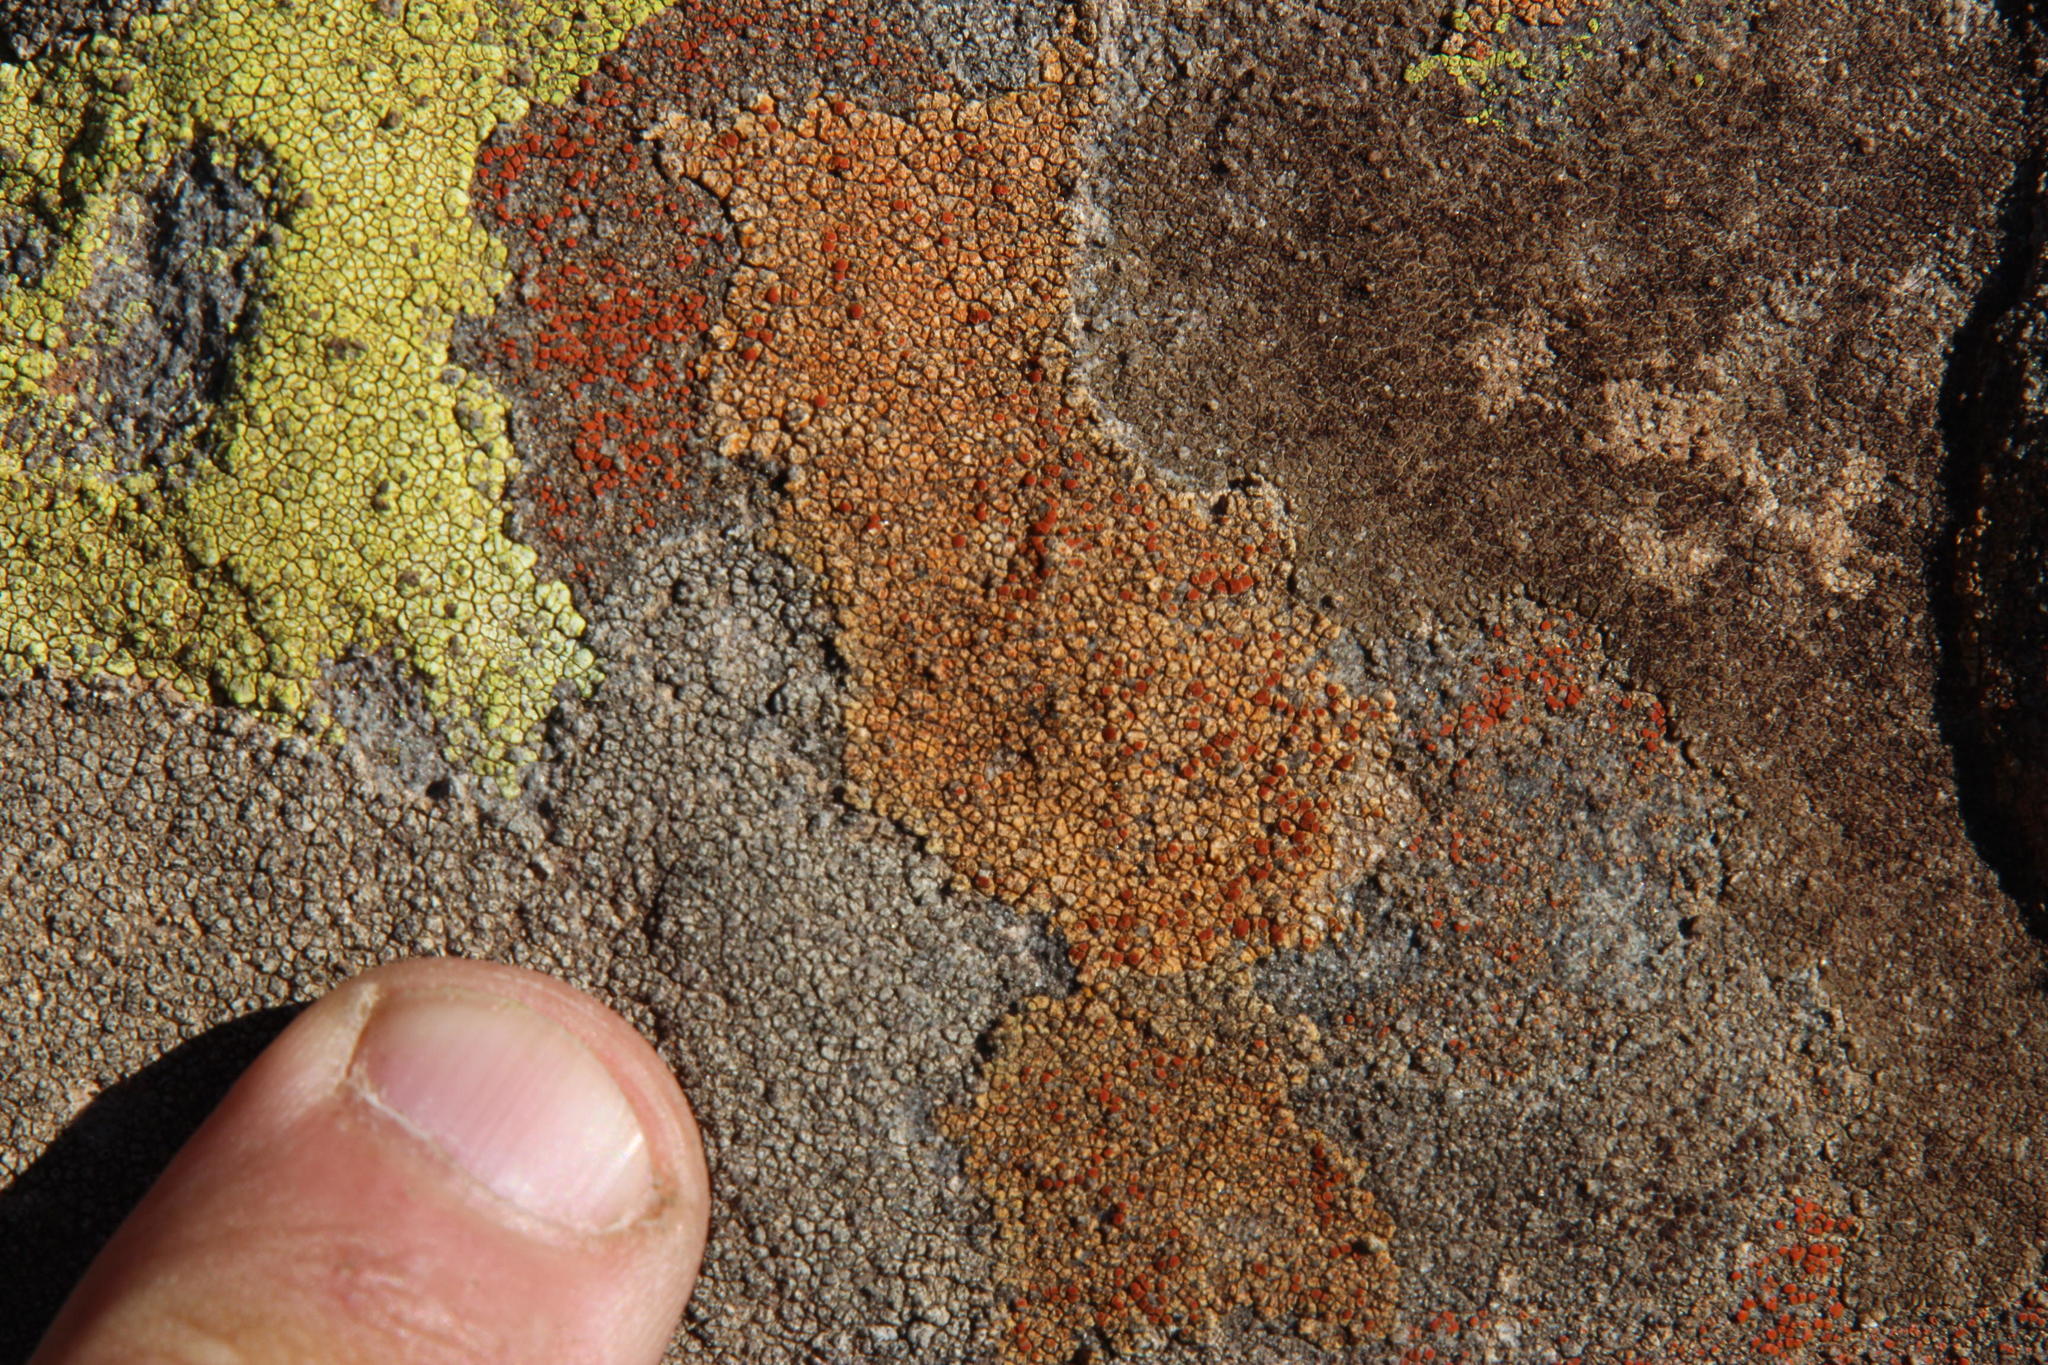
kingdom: Fungi
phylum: Ascomycota
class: Lecanoromycetes
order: Teloschistales
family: Teloschistaceae
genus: Caloplaca
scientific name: Caloplaca rubelliana
